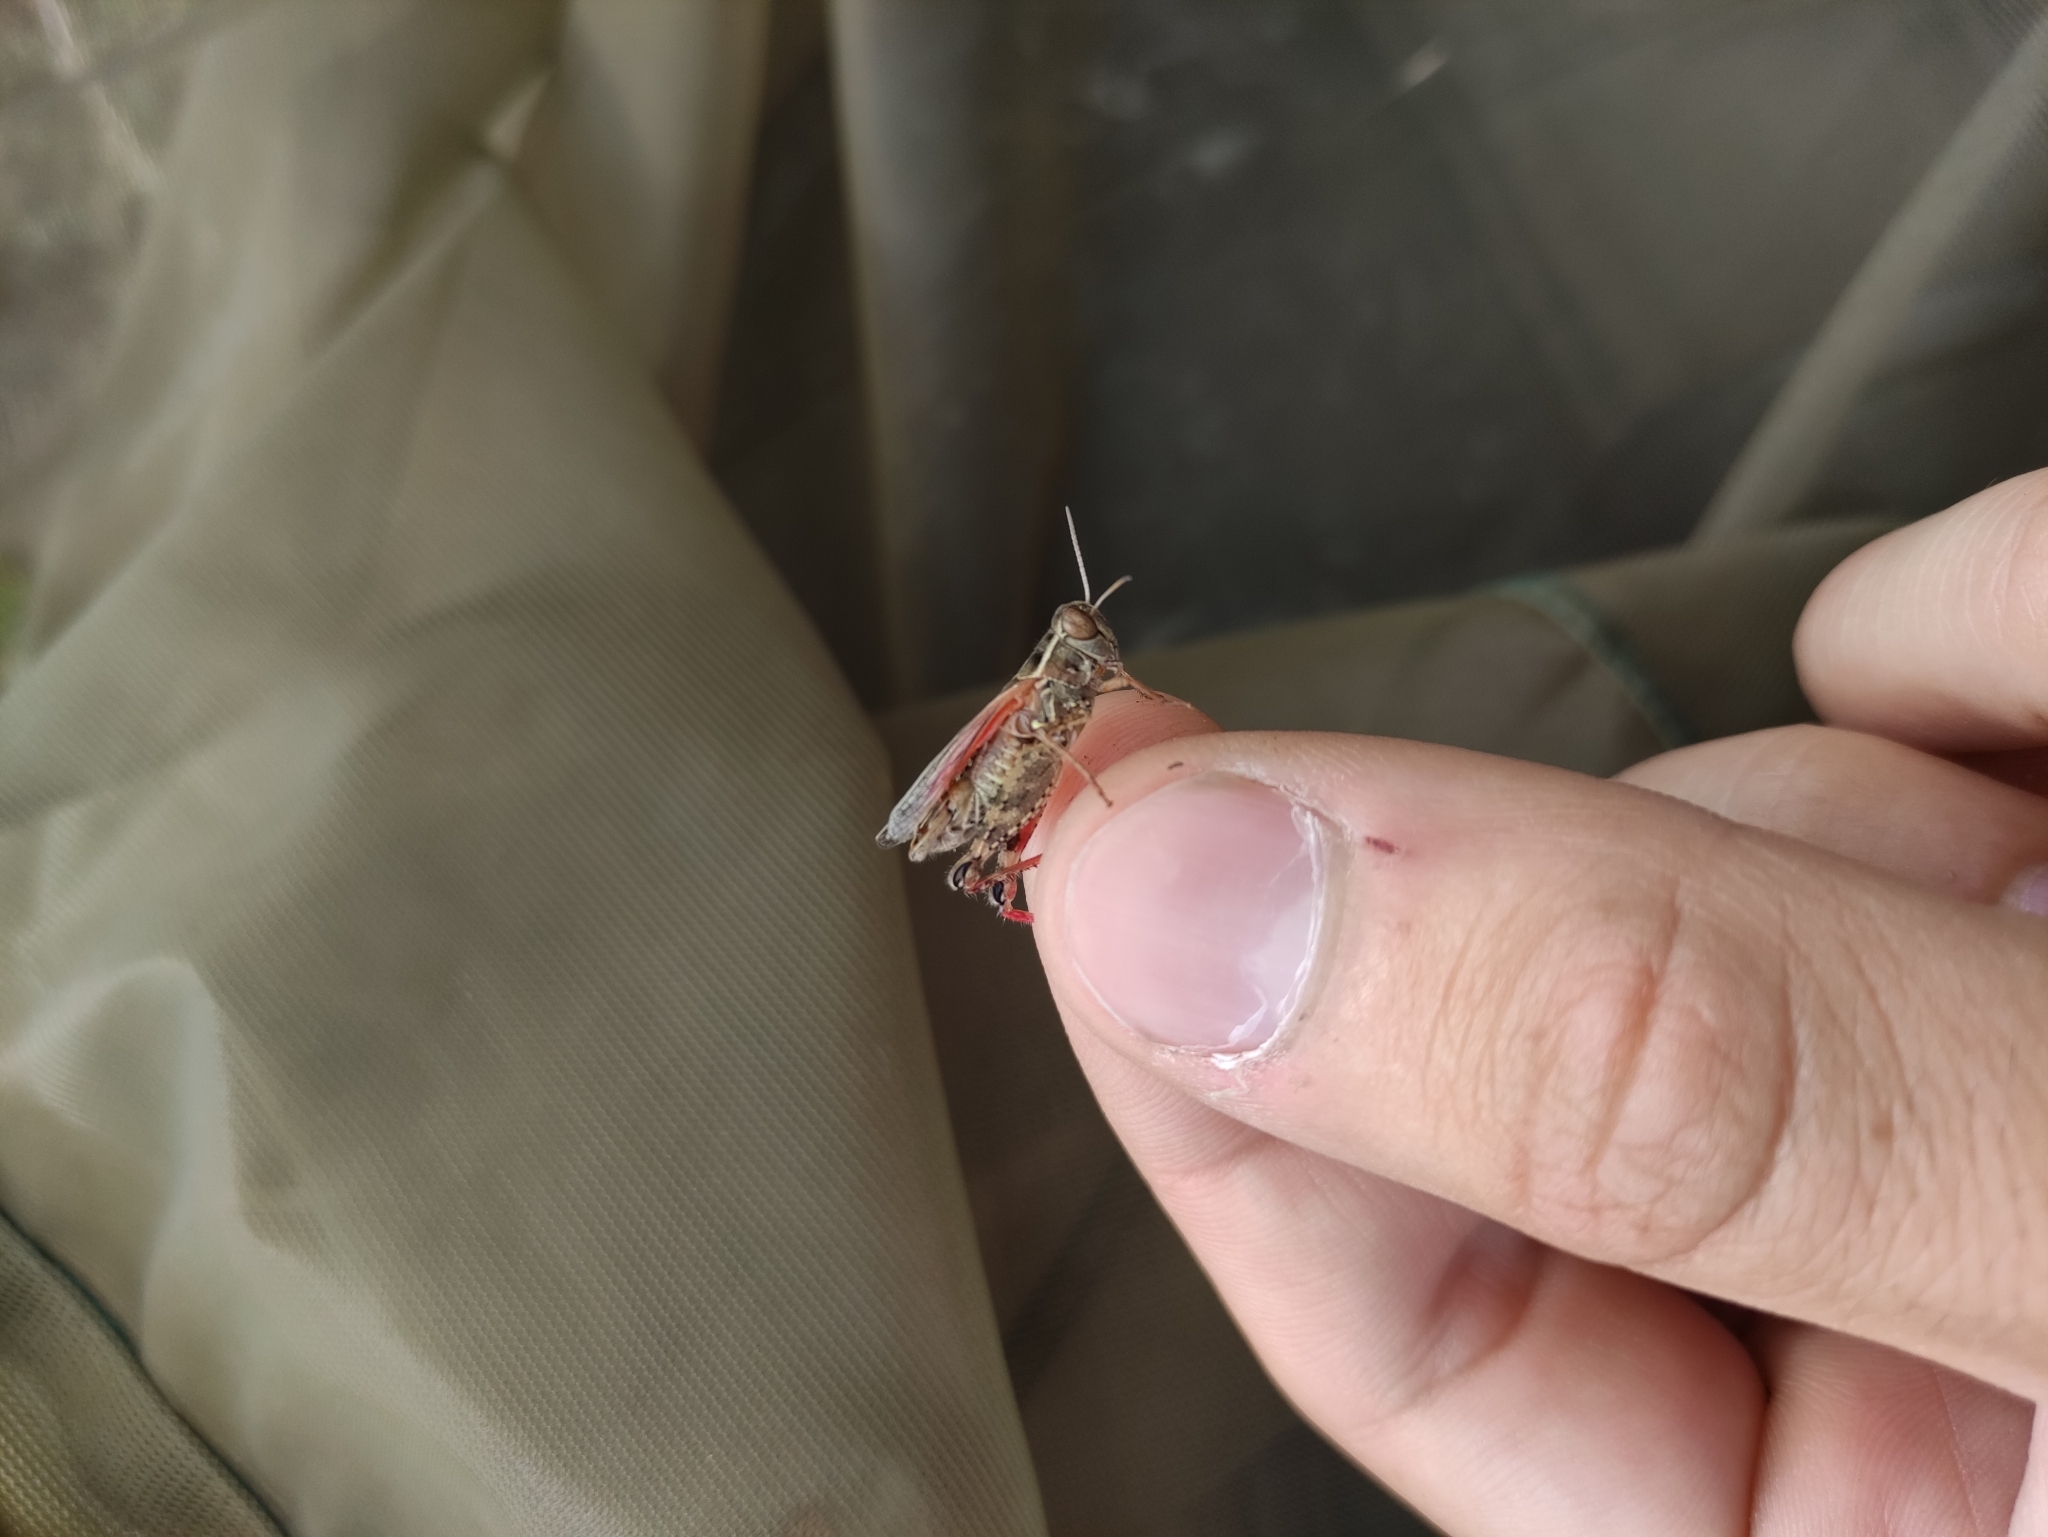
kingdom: Animalia
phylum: Arthropoda
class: Insecta
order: Orthoptera
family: Acrididae
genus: Calliptamus
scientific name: Calliptamus italicus
